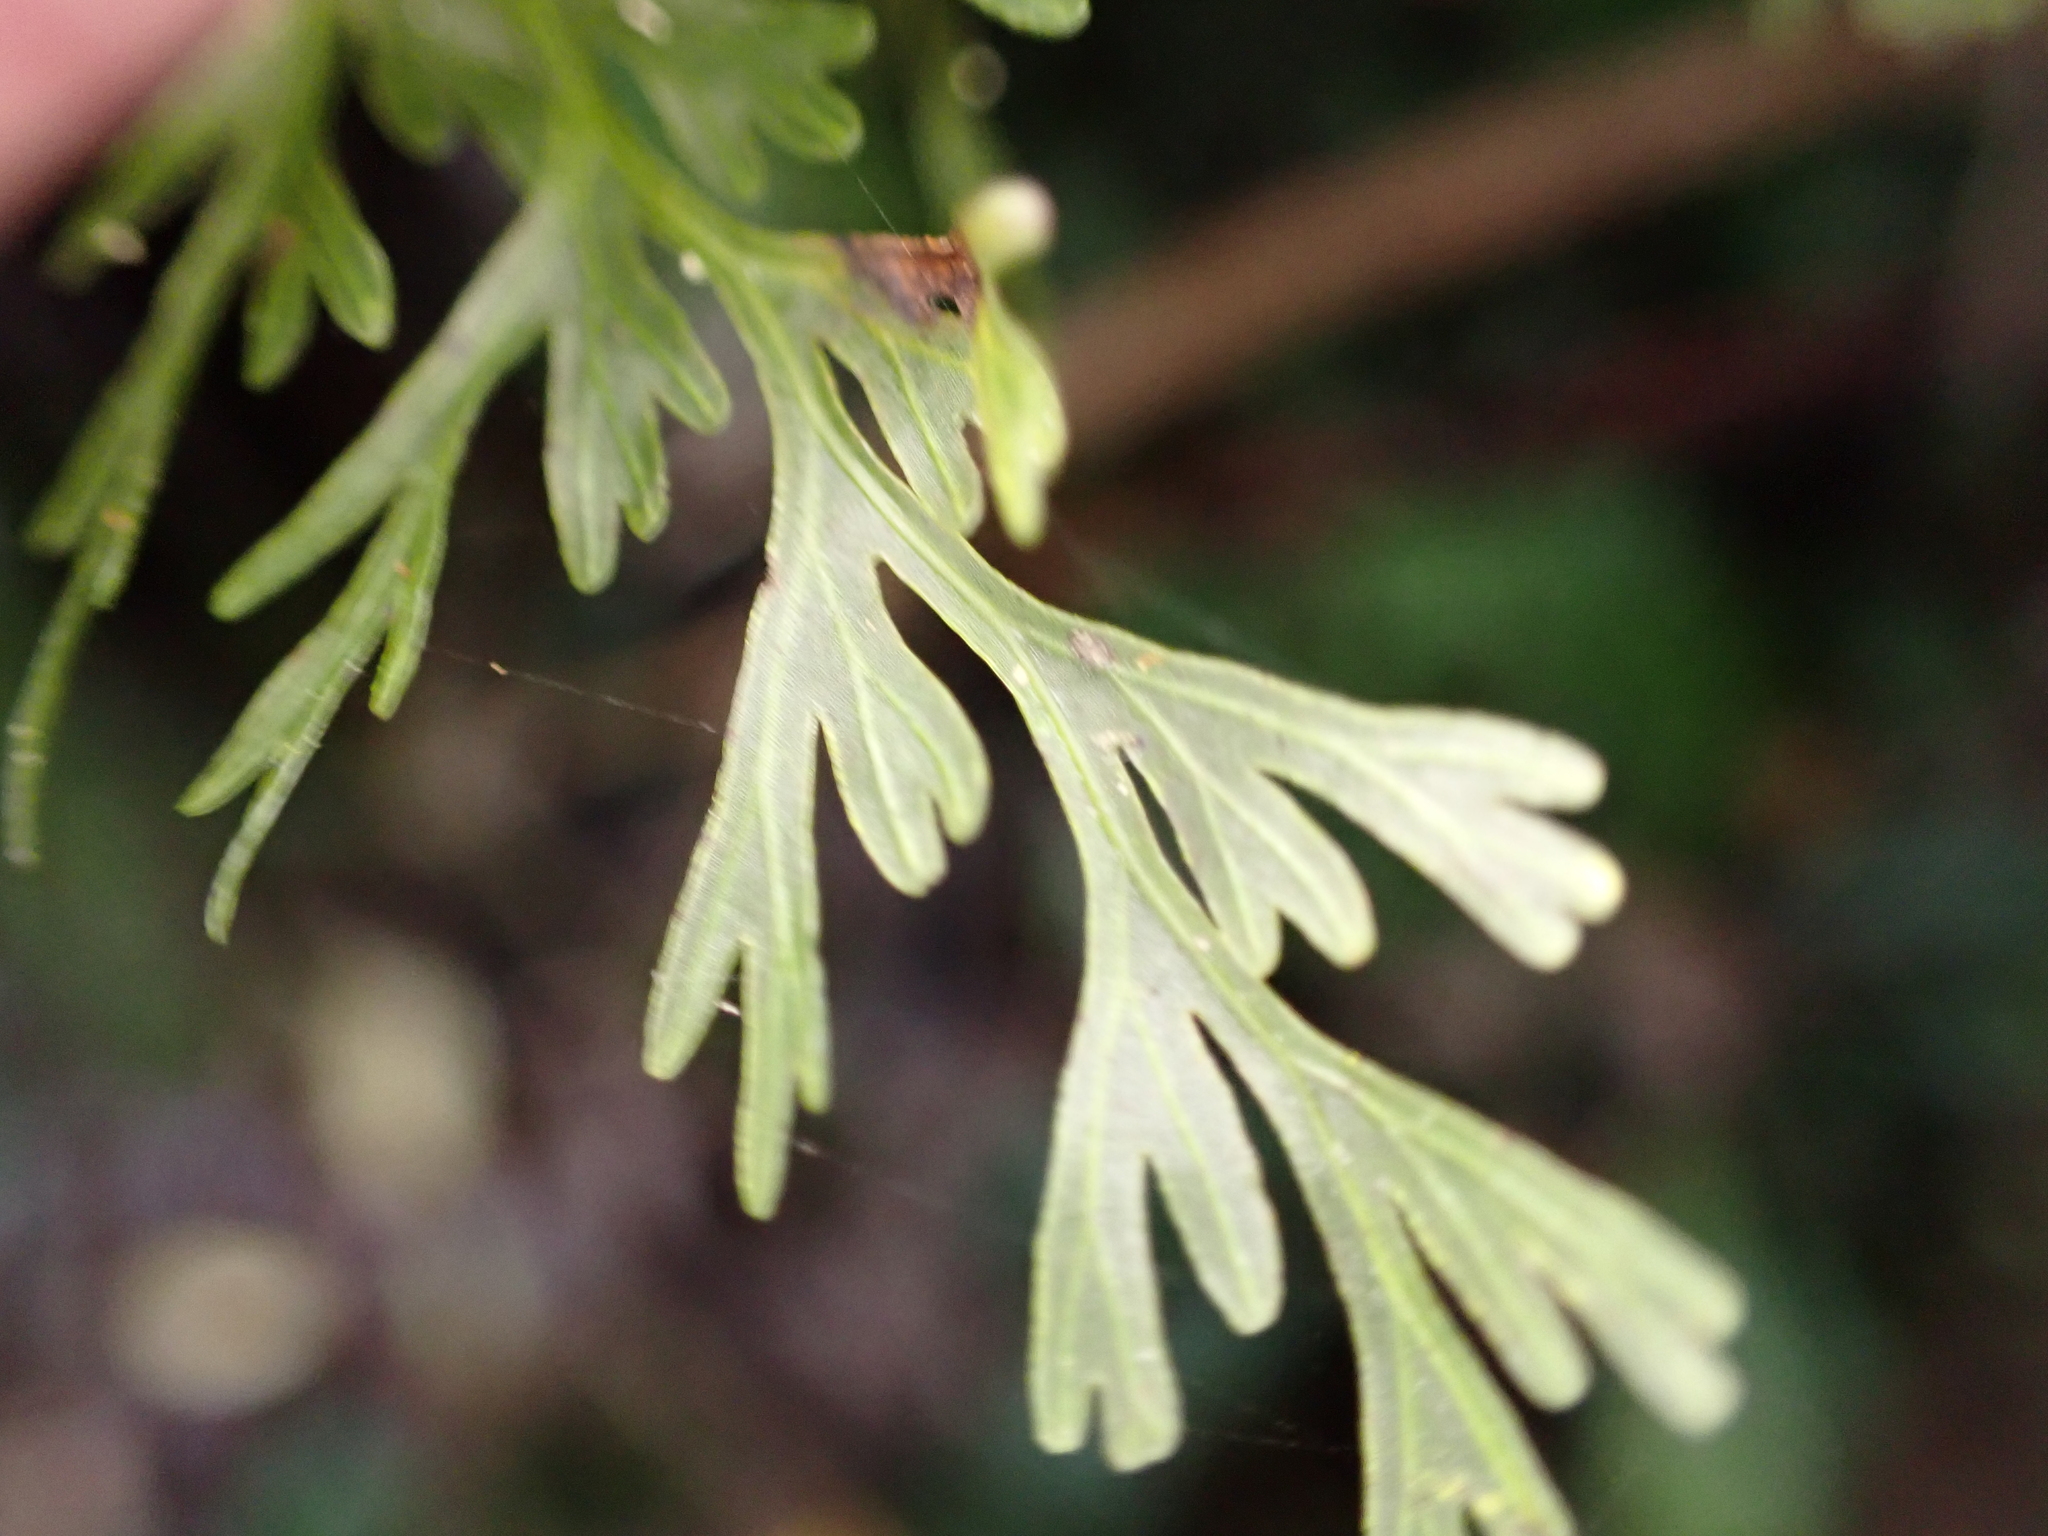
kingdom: Plantae
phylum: Tracheophyta
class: Polypodiopsida
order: Hymenophyllales
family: Hymenophyllaceae
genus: Hymenophyllum
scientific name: Hymenophyllum demissum
